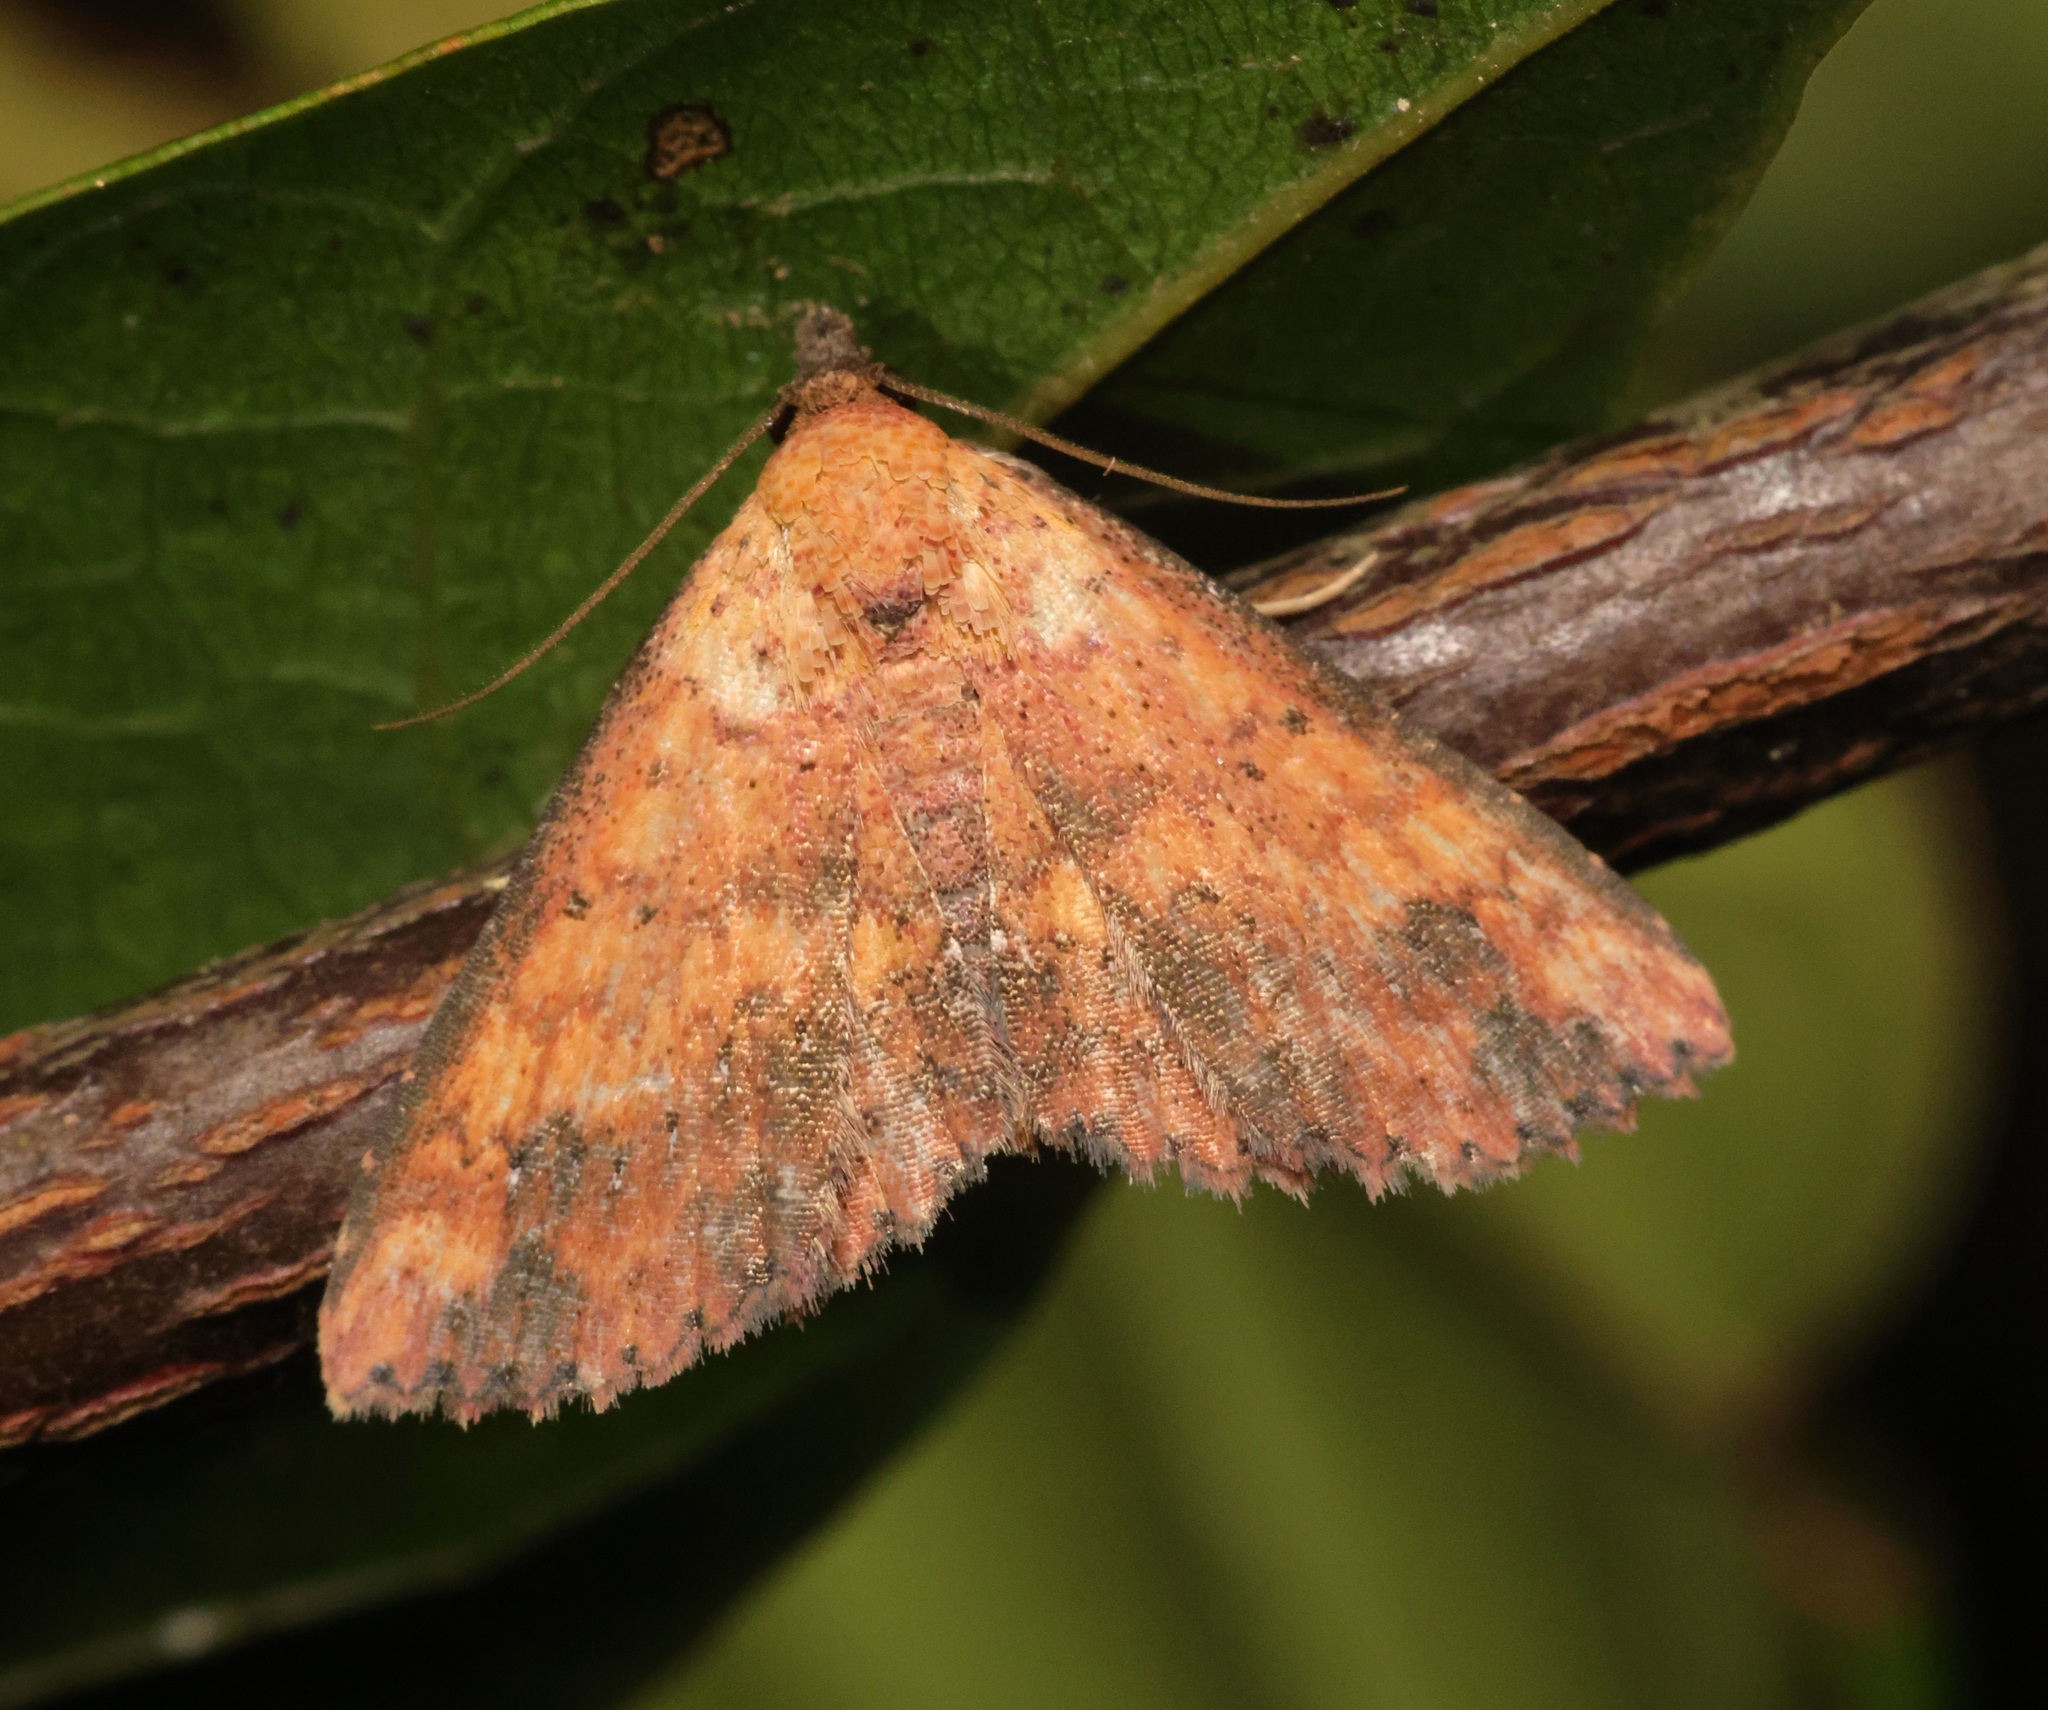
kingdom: Animalia
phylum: Arthropoda
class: Insecta
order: Lepidoptera
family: Noctuidae
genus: Cerynea
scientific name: Cerynea ustula
